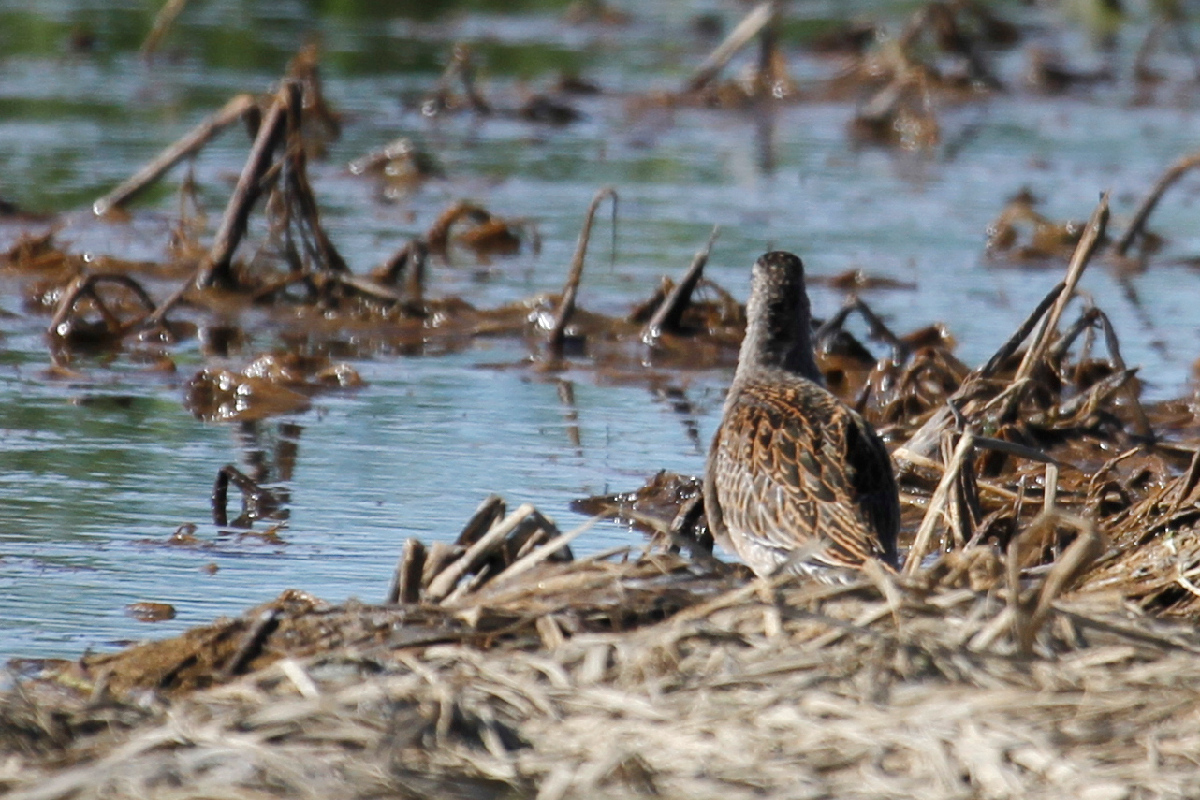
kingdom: Animalia
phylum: Chordata
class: Aves
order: Charadriiformes
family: Scolopacidae
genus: Limnodromus
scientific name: Limnodromus griseus
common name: Short-billed dowitcher
